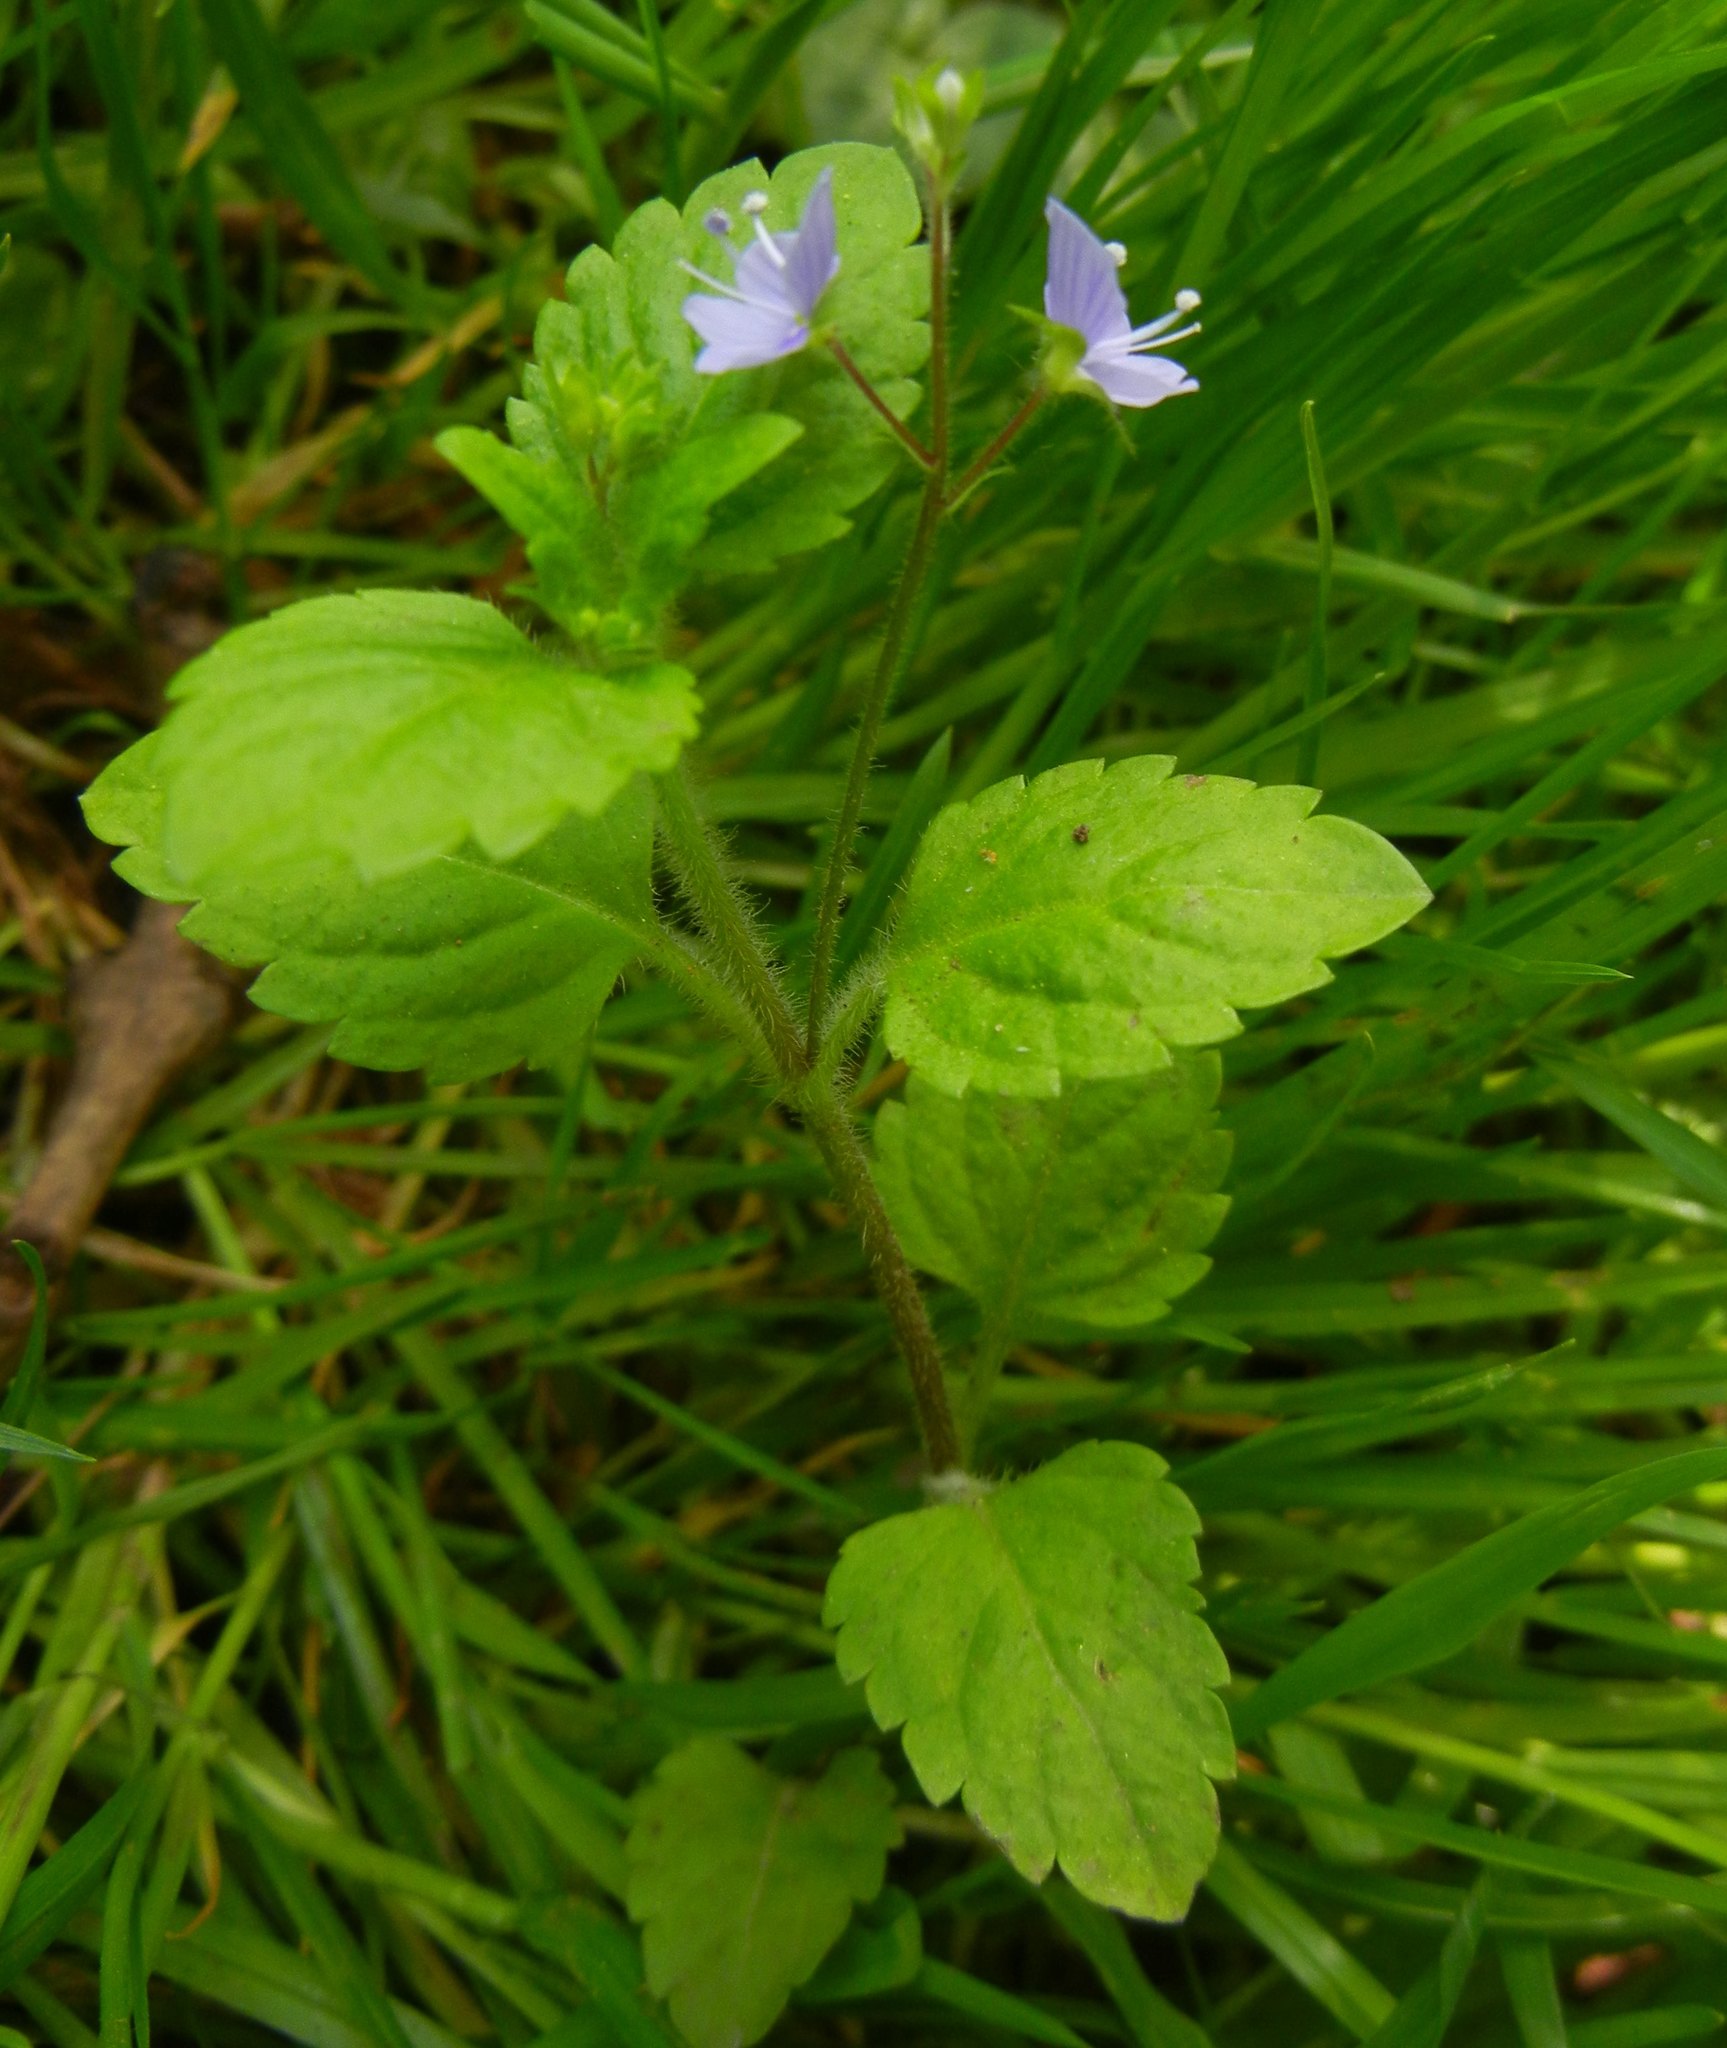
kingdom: Plantae
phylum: Tracheophyta
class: Magnoliopsida
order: Lamiales
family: Plantaginaceae
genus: Veronica
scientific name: Veronica montana
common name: Wood speedwell
